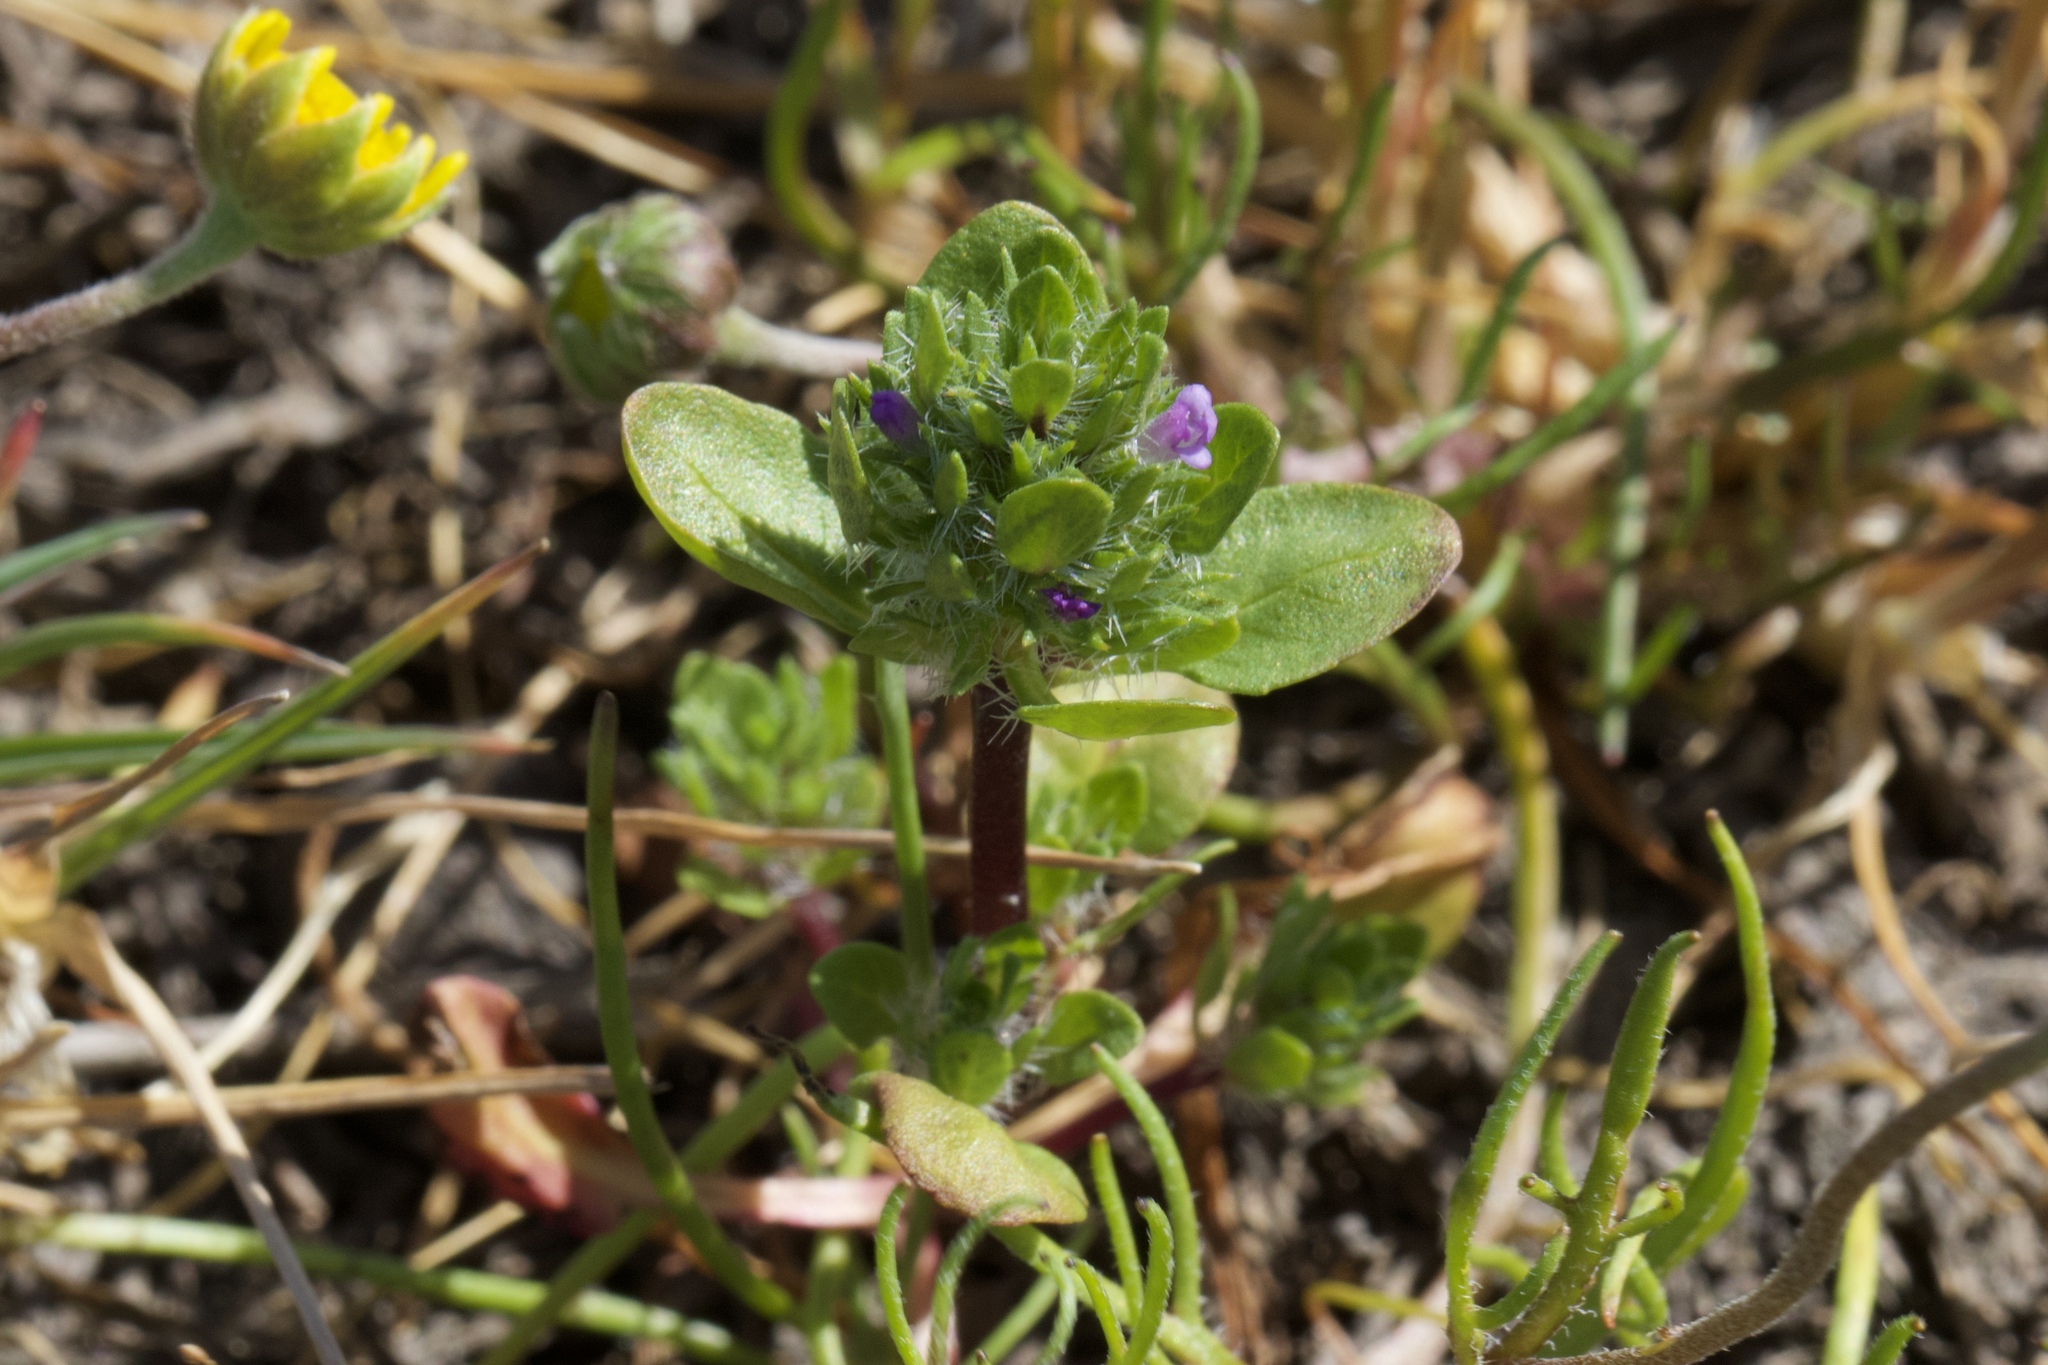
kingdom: Plantae
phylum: Tracheophyta
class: Magnoliopsida
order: Lamiales
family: Lamiaceae
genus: Pogogyne
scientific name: Pogogyne zizyphoroides
